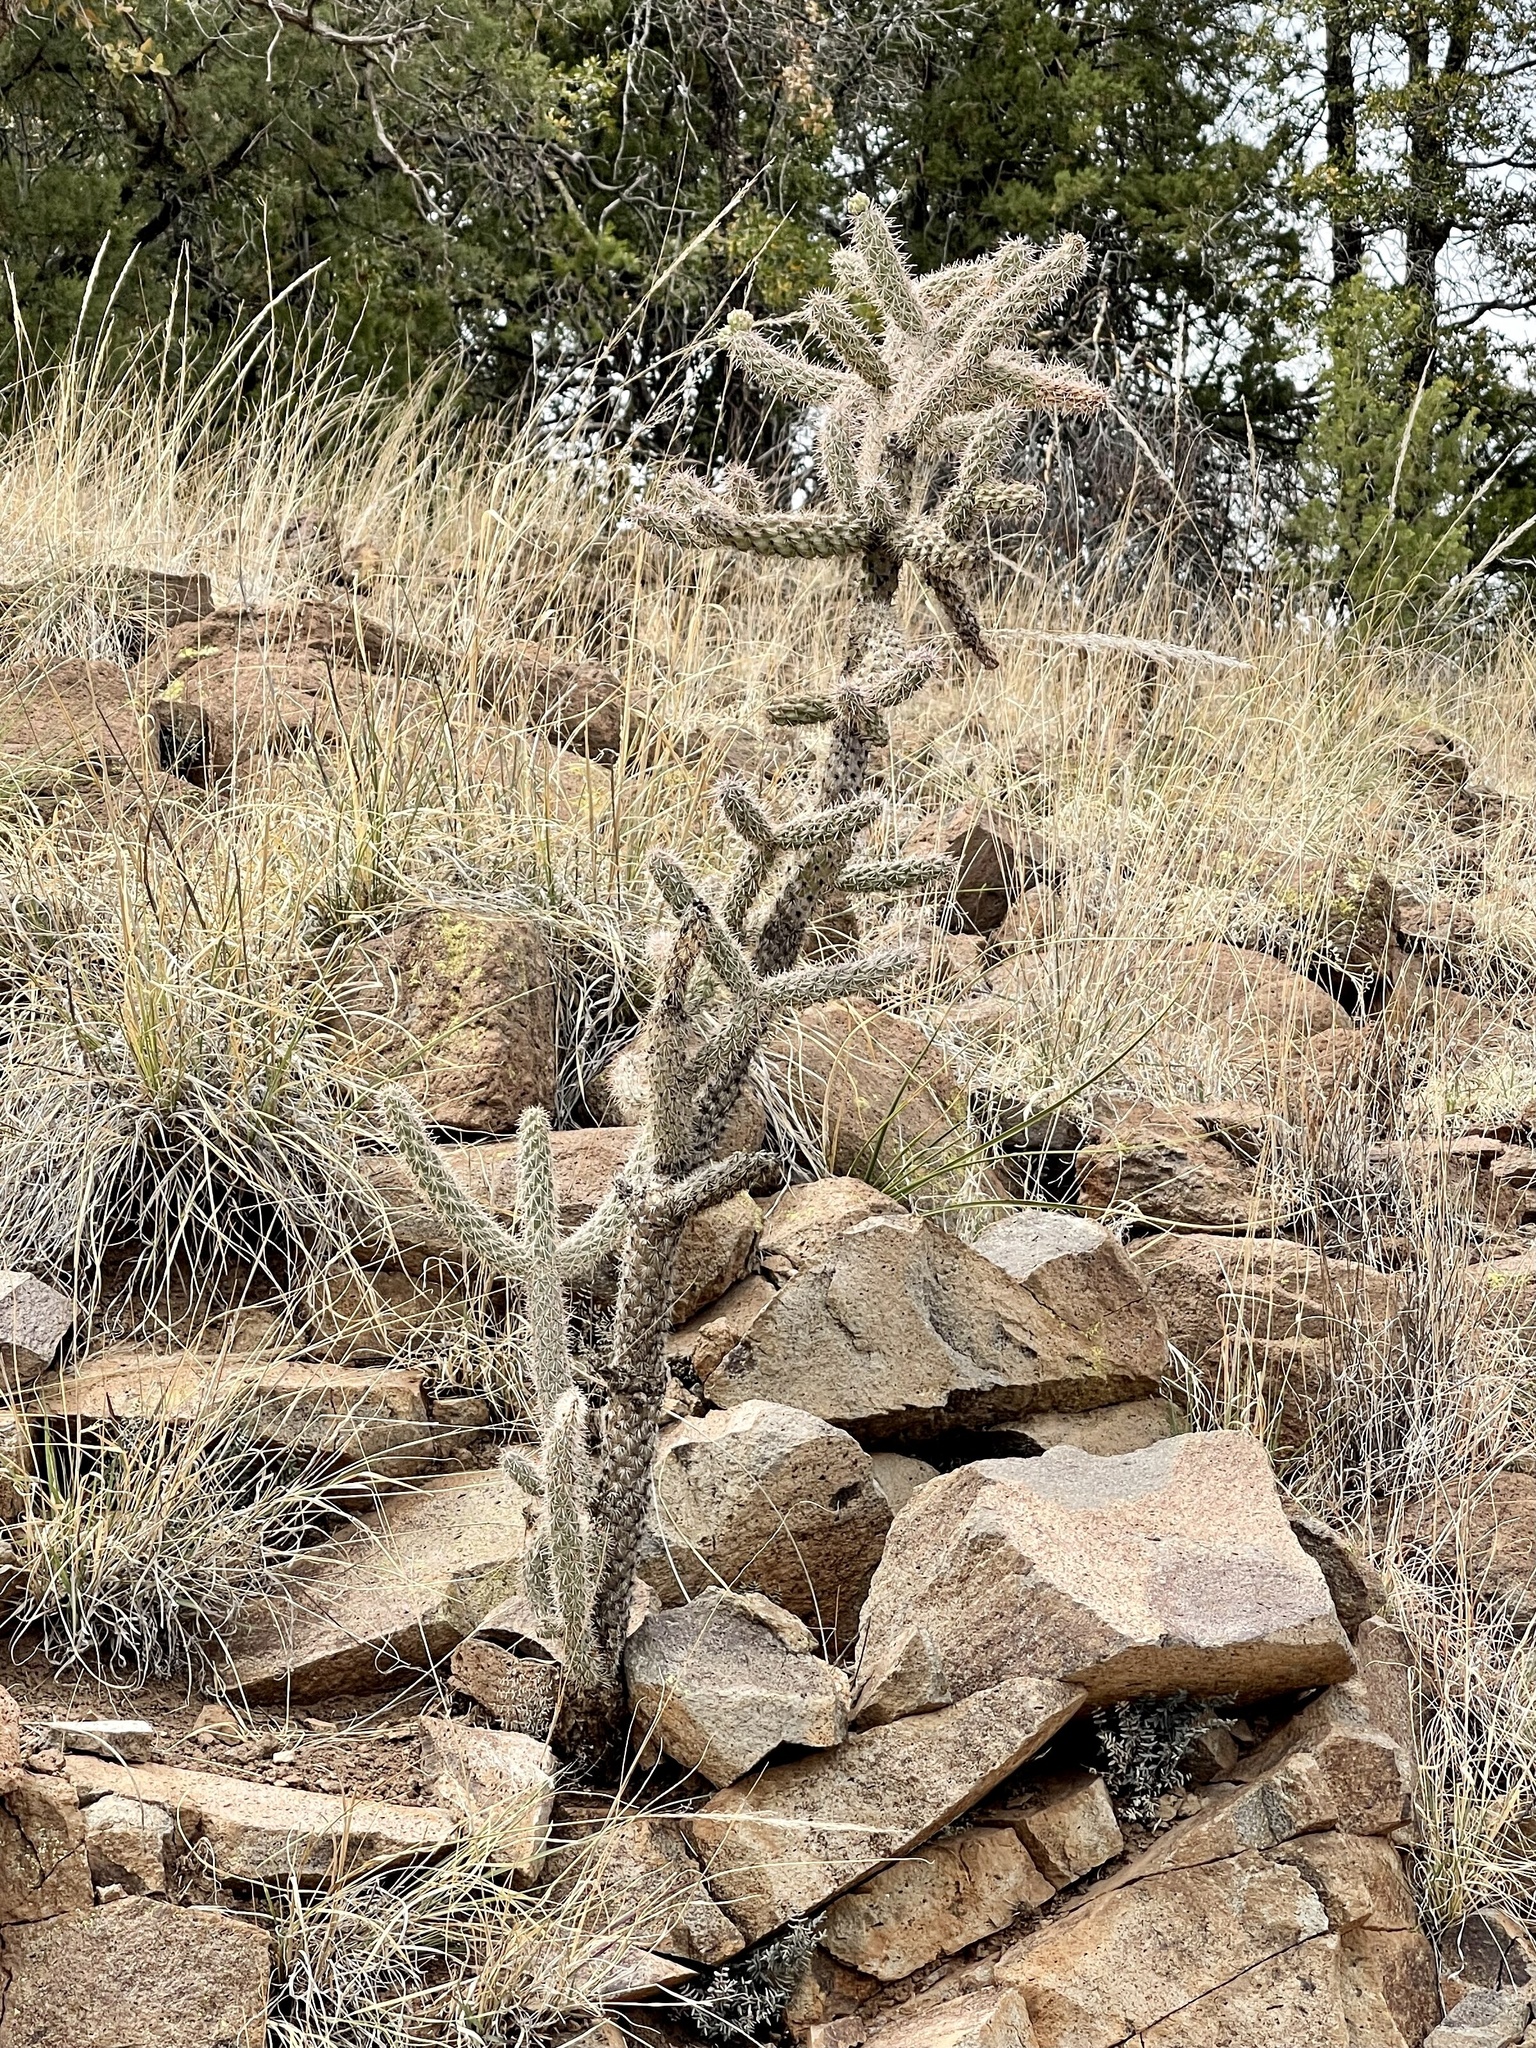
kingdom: Plantae
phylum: Tracheophyta
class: Magnoliopsida
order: Caryophyllales
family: Cactaceae
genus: Cylindropuntia
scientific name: Cylindropuntia imbricata
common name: Candelabrum cactus
